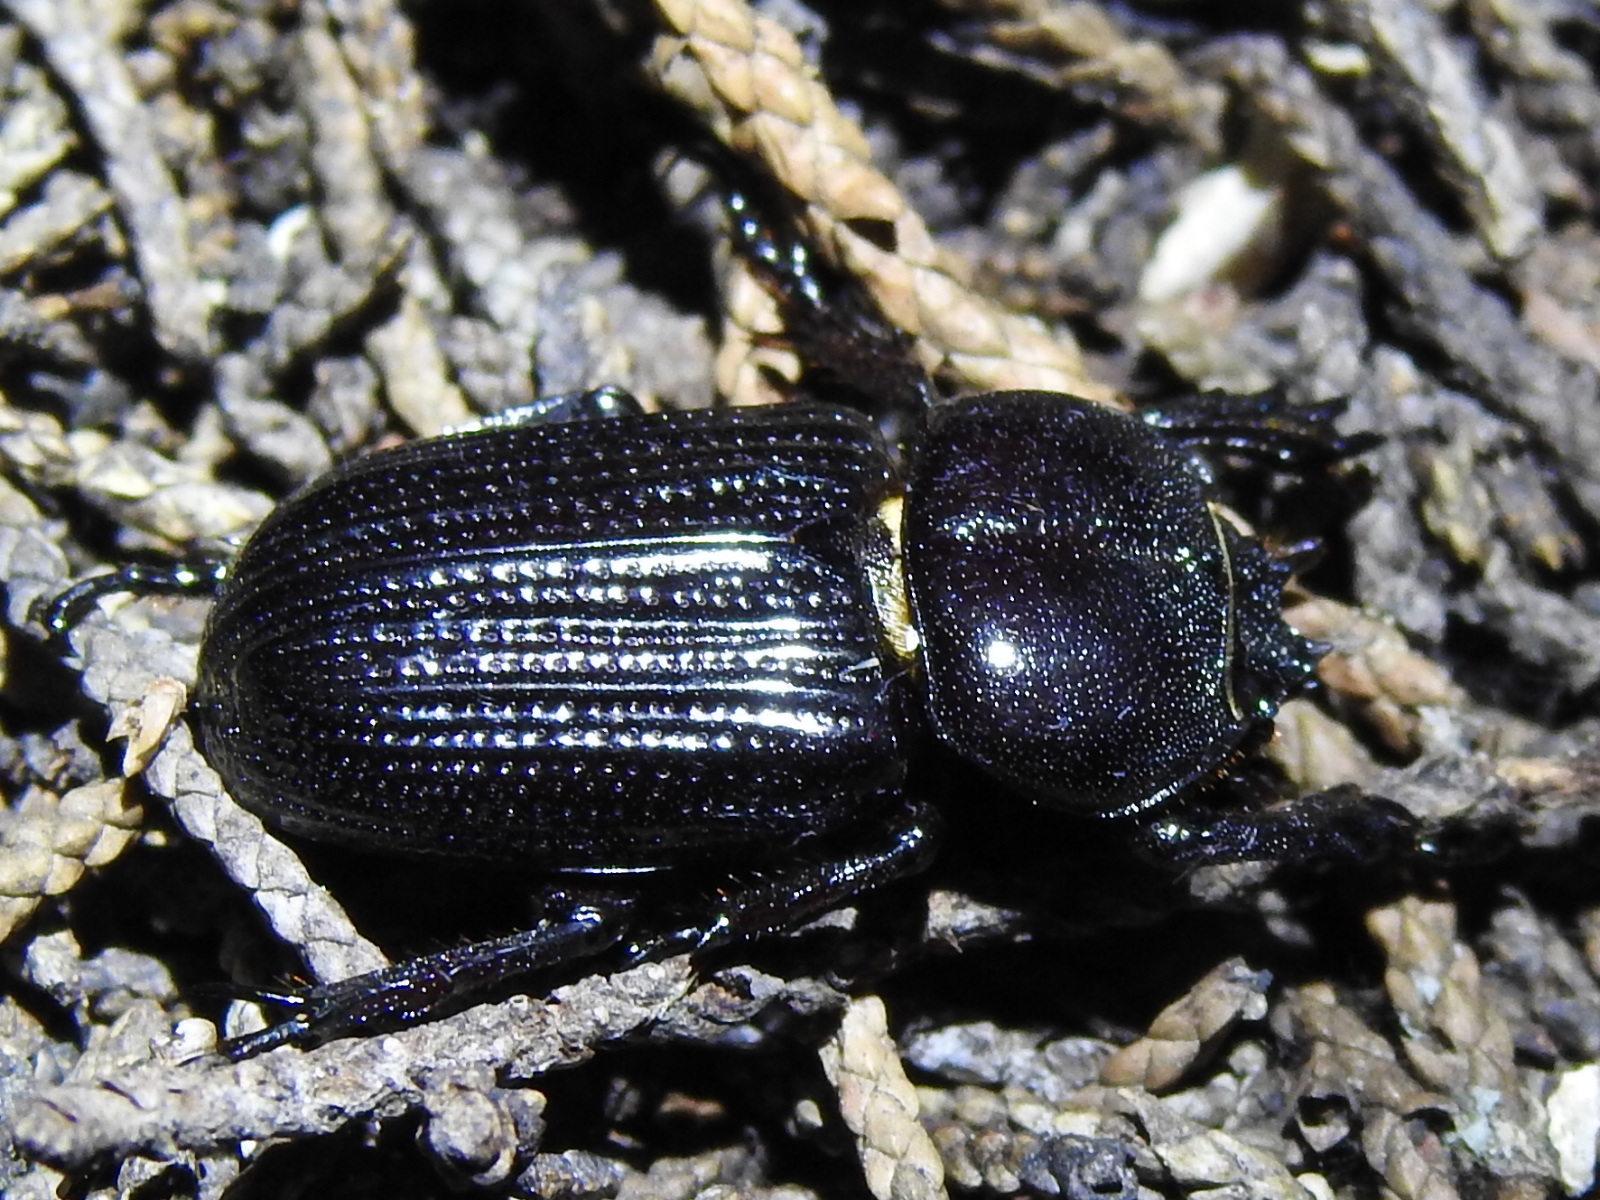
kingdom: Animalia
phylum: Arthropoda
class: Insecta
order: Coleoptera
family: Scarabaeidae
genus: Phileurus
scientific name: Phileurus valgus
